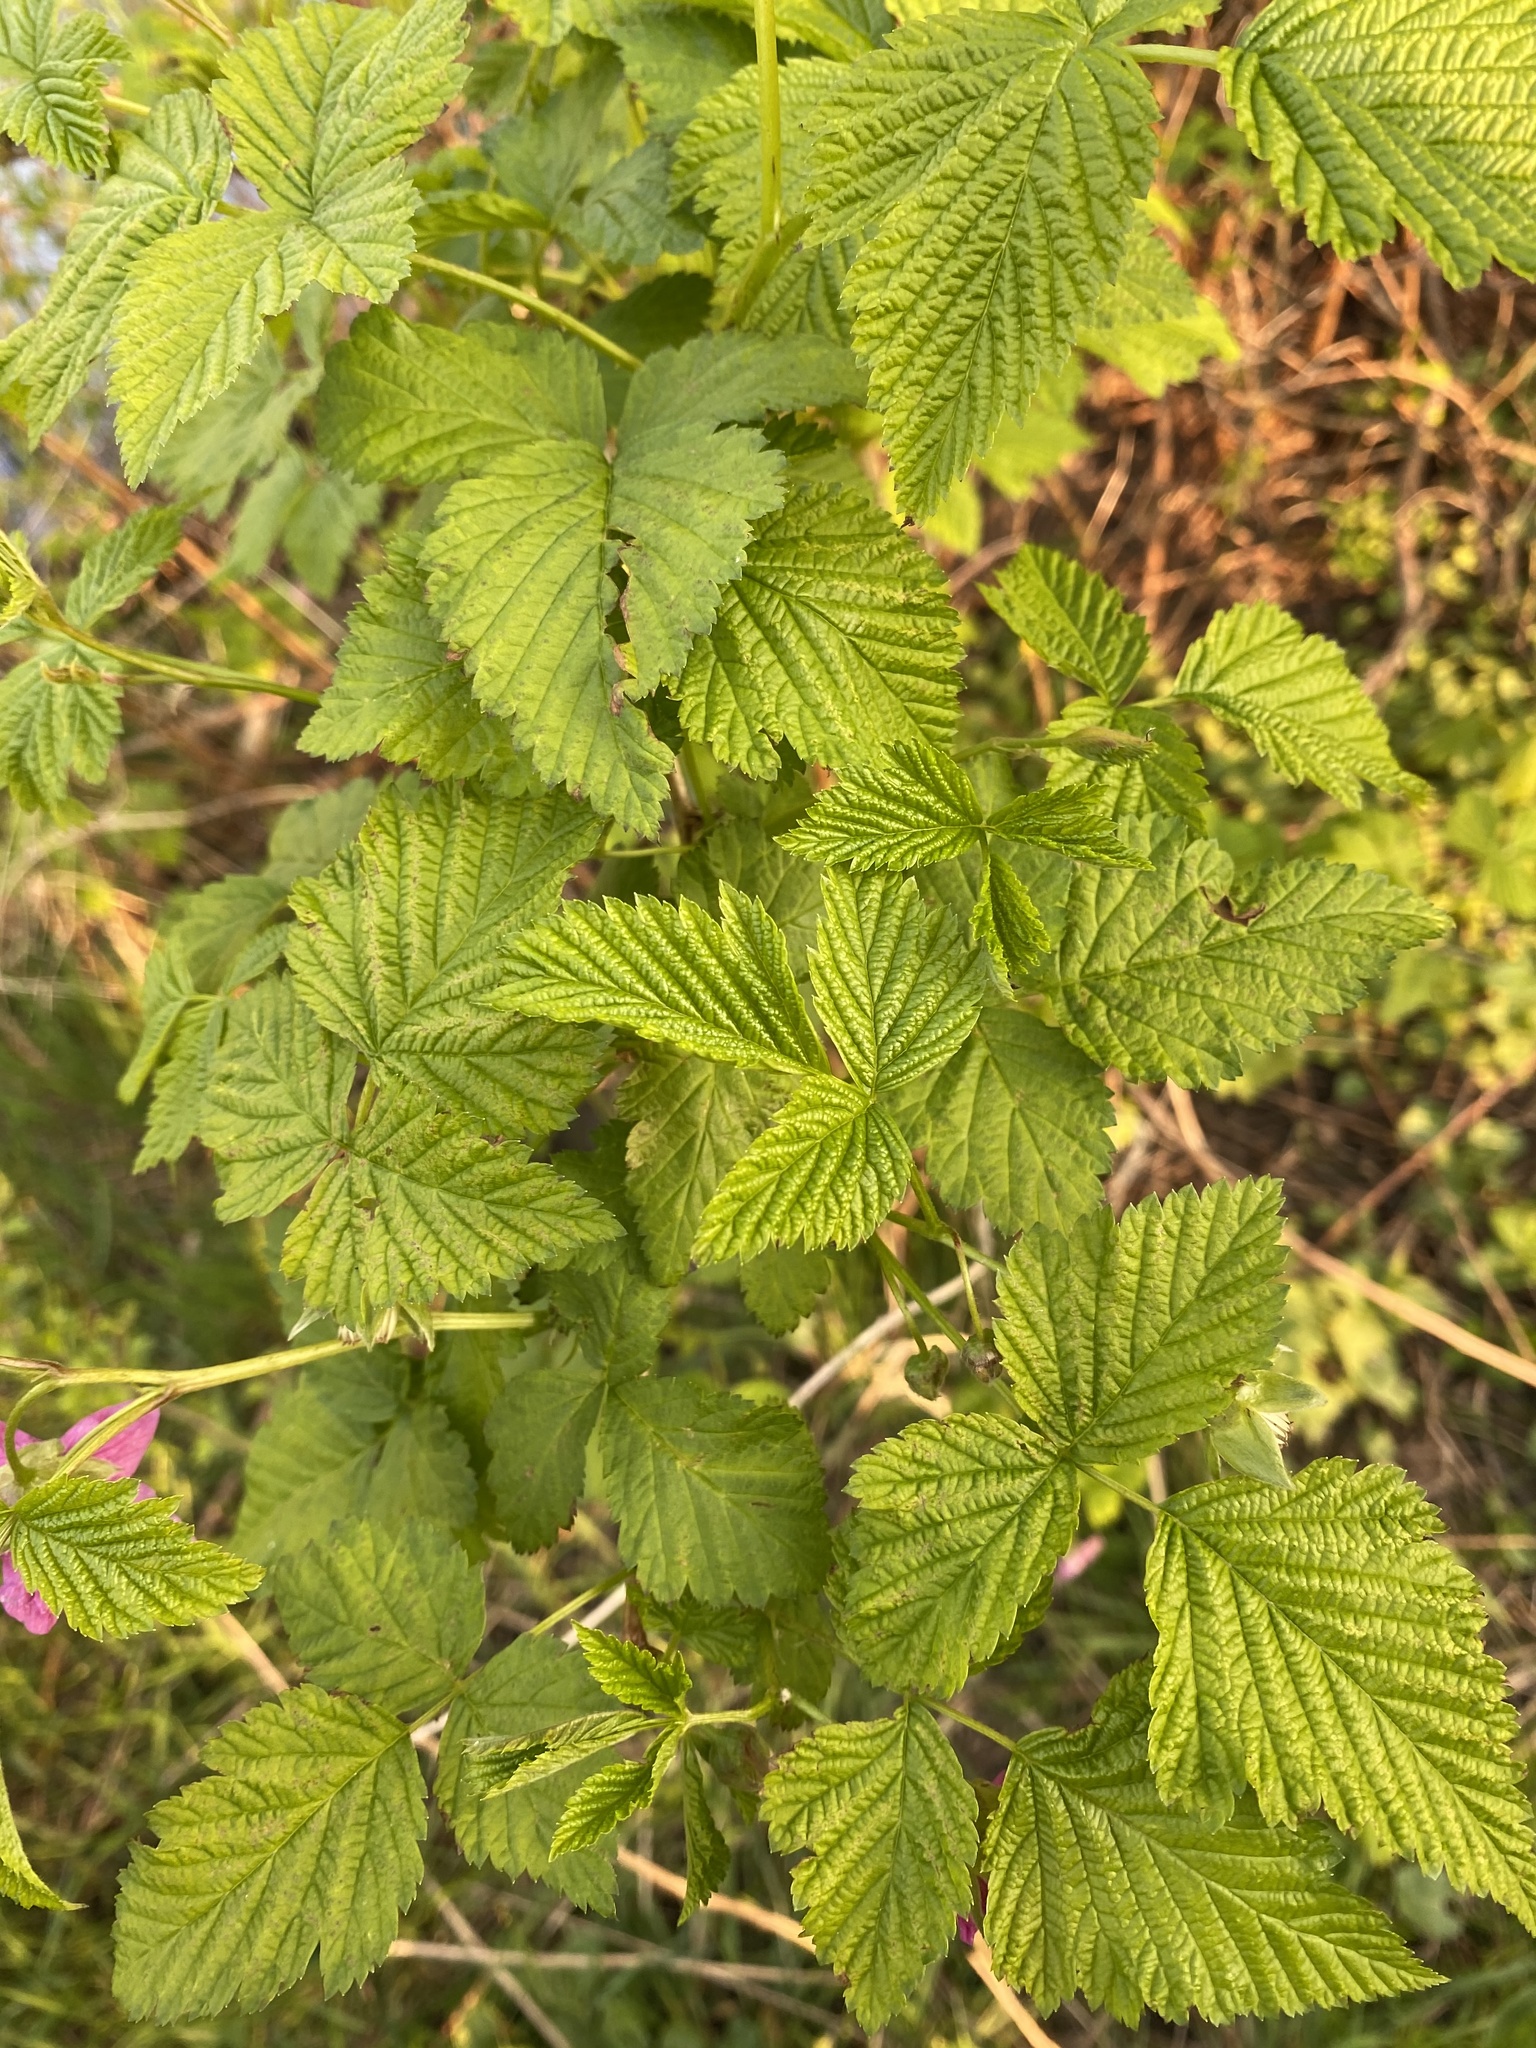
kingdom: Plantae
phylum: Tracheophyta
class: Magnoliopsida
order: Rosales
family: Rosaceae
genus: Rubus
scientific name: Rubus spectabilis
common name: Salmonberry
